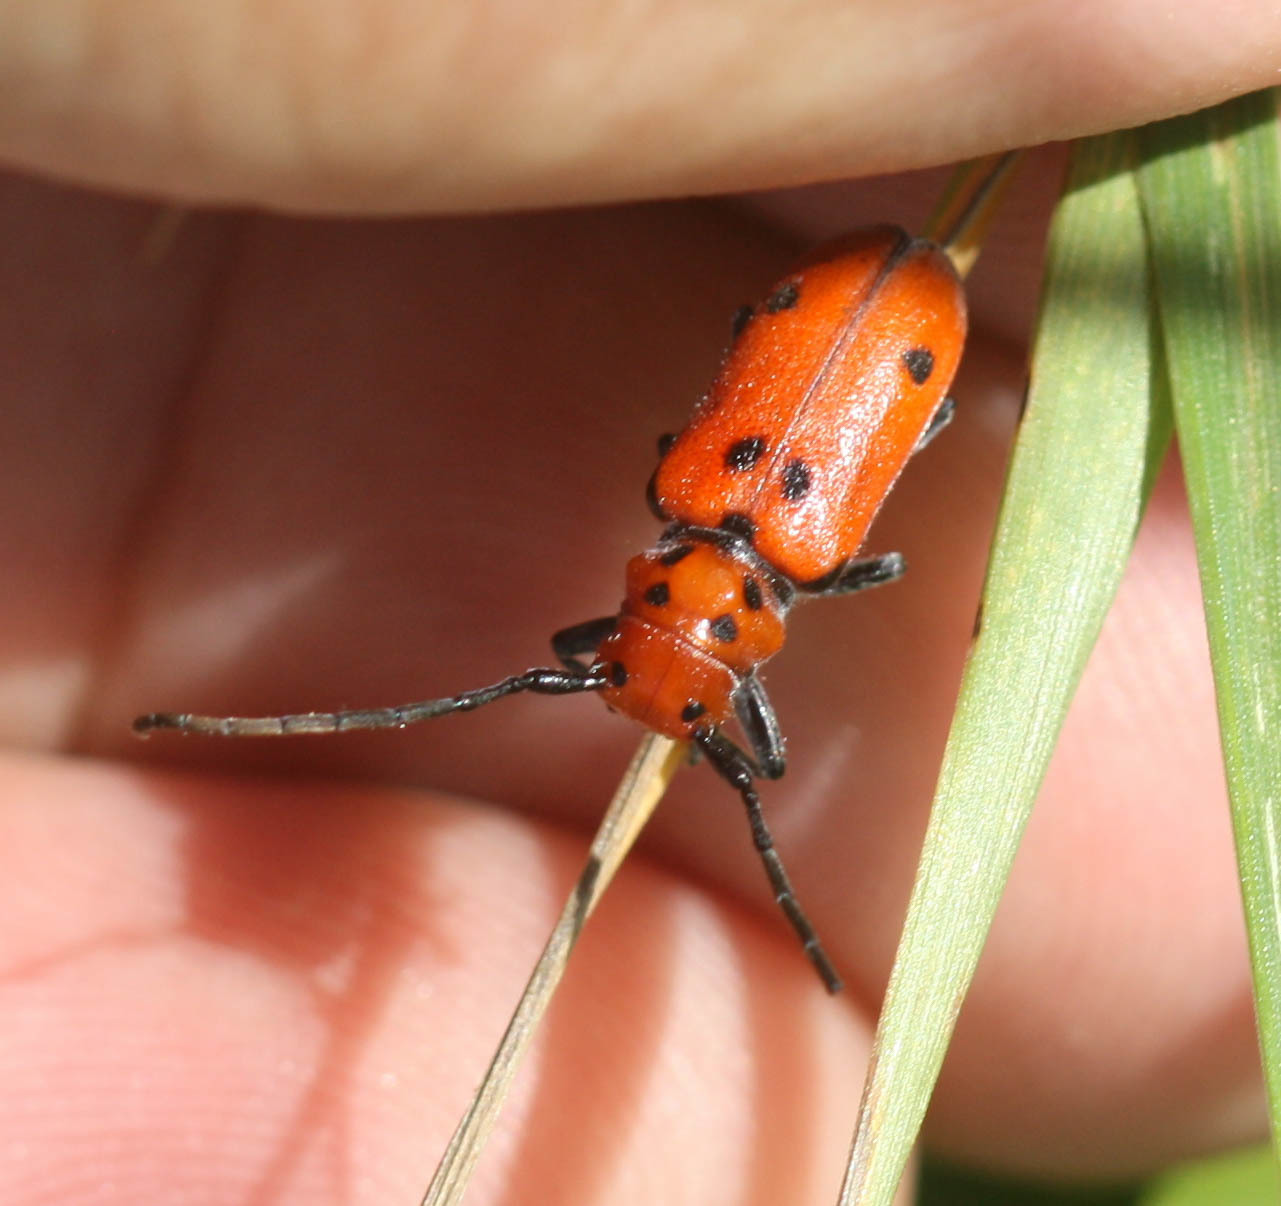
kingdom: Animalia
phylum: Arthropoda
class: Insecta
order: Coleoptera
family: Cerambycidae
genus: Tetraopes
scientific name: Tetraopes tetrophthalmus
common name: Red milkweed beetle
